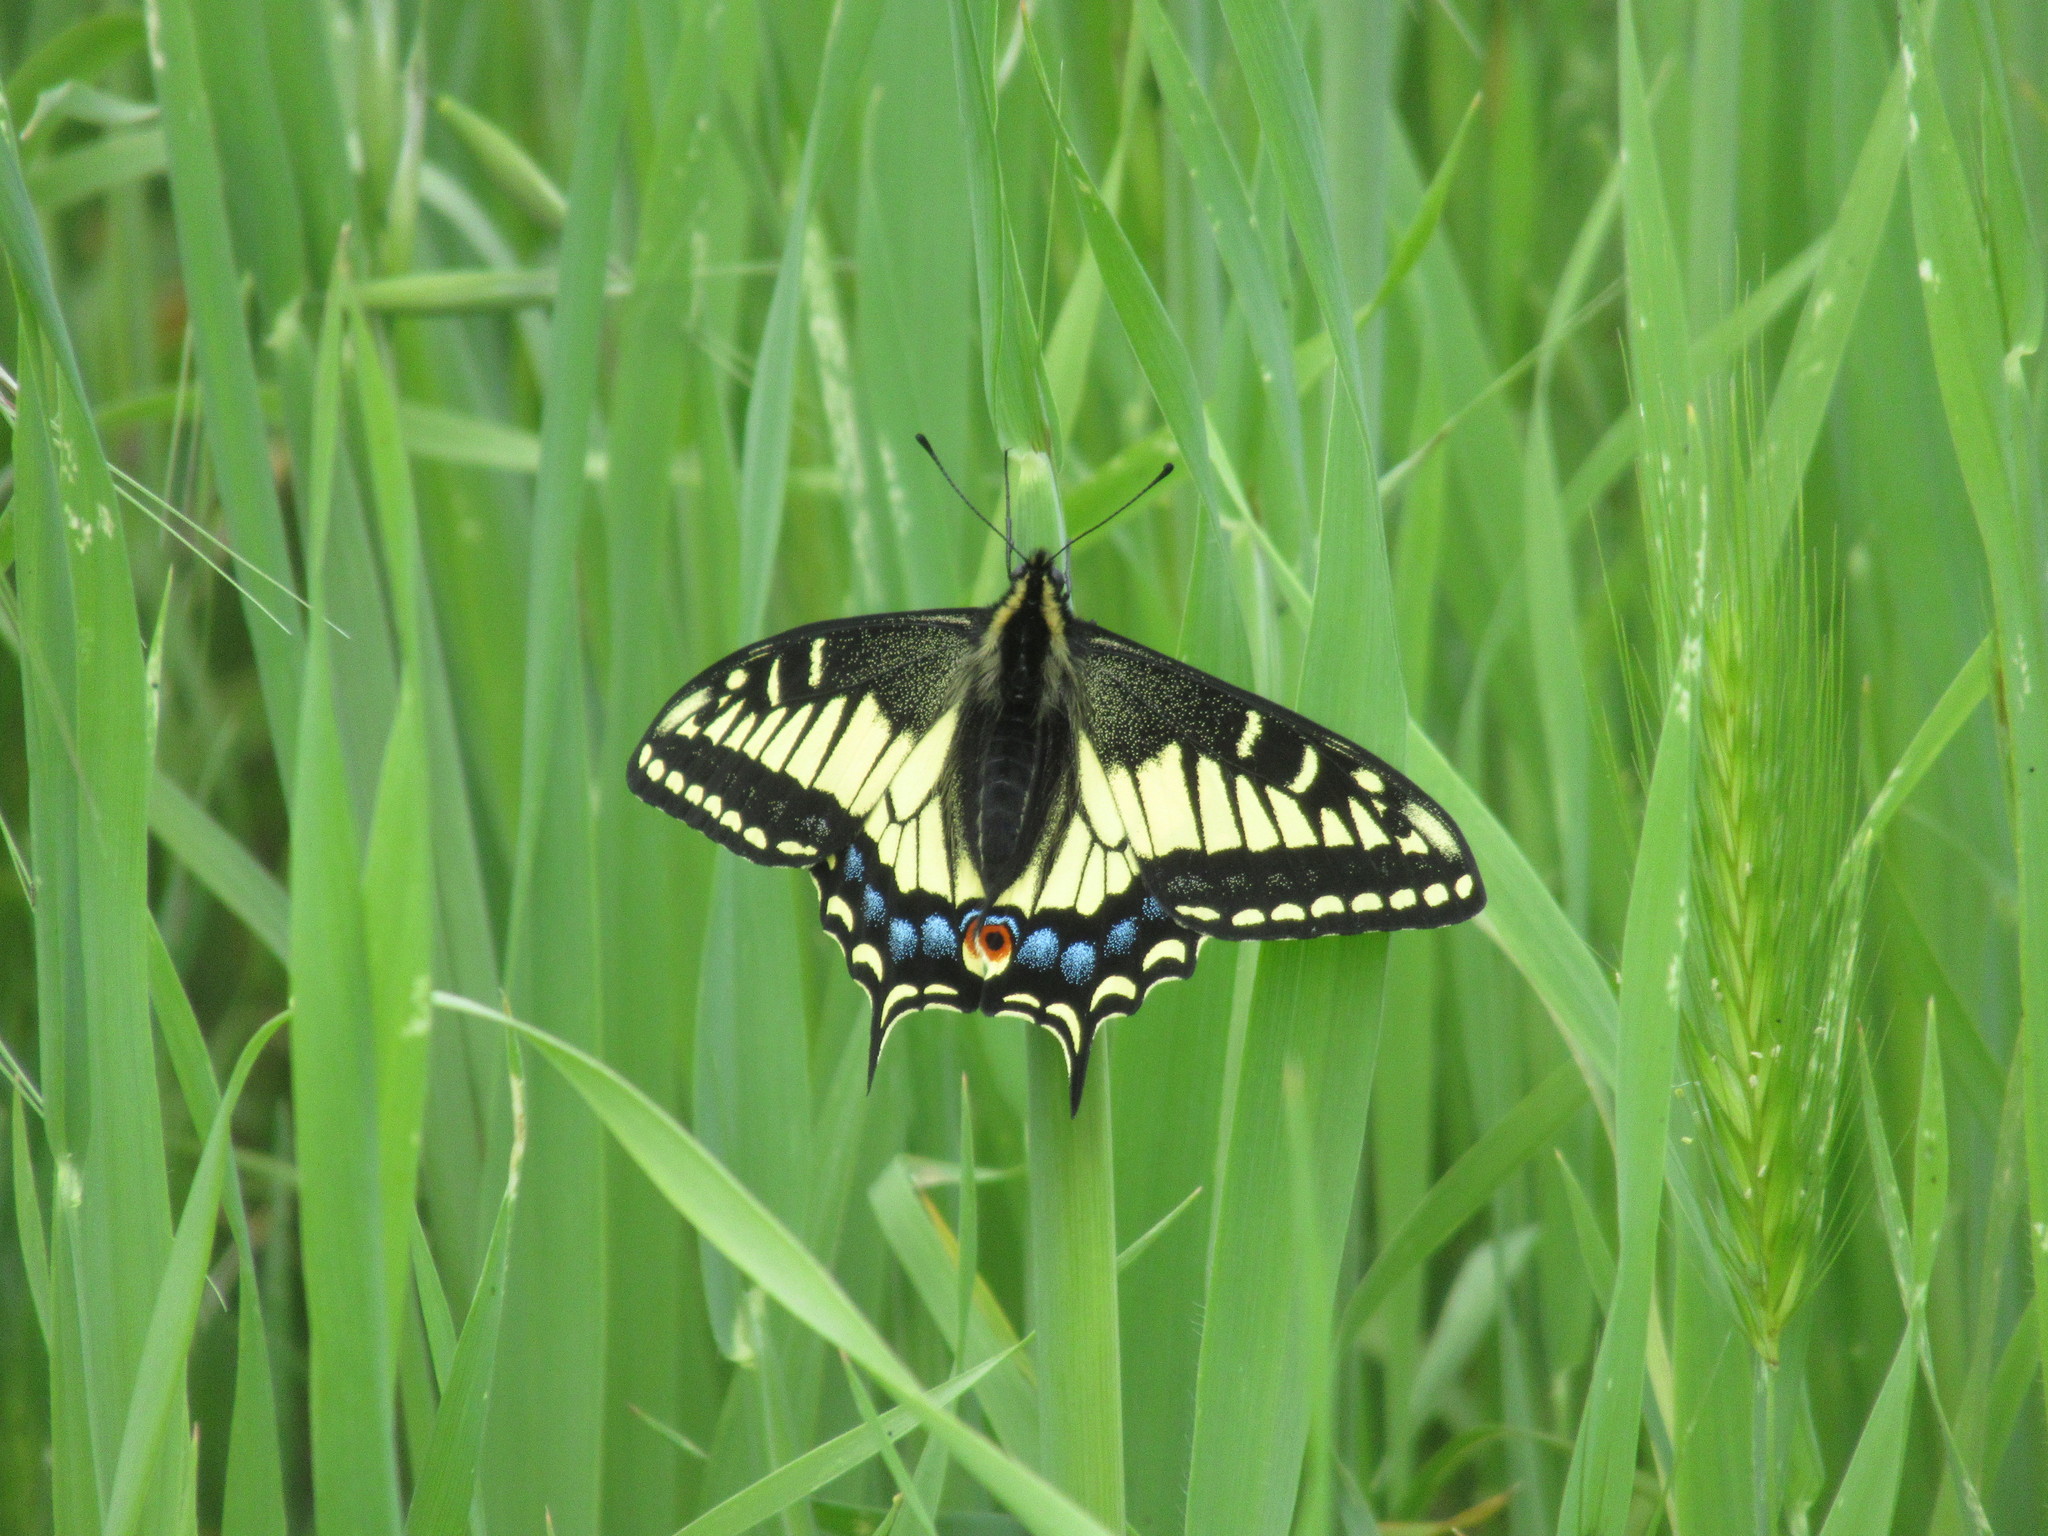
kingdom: Animalia
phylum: Arthropoda
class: Insecta
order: Lepidoptera
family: Papilionidae
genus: Papilio
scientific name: Papilio zelicaon
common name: Anise swallowtail
